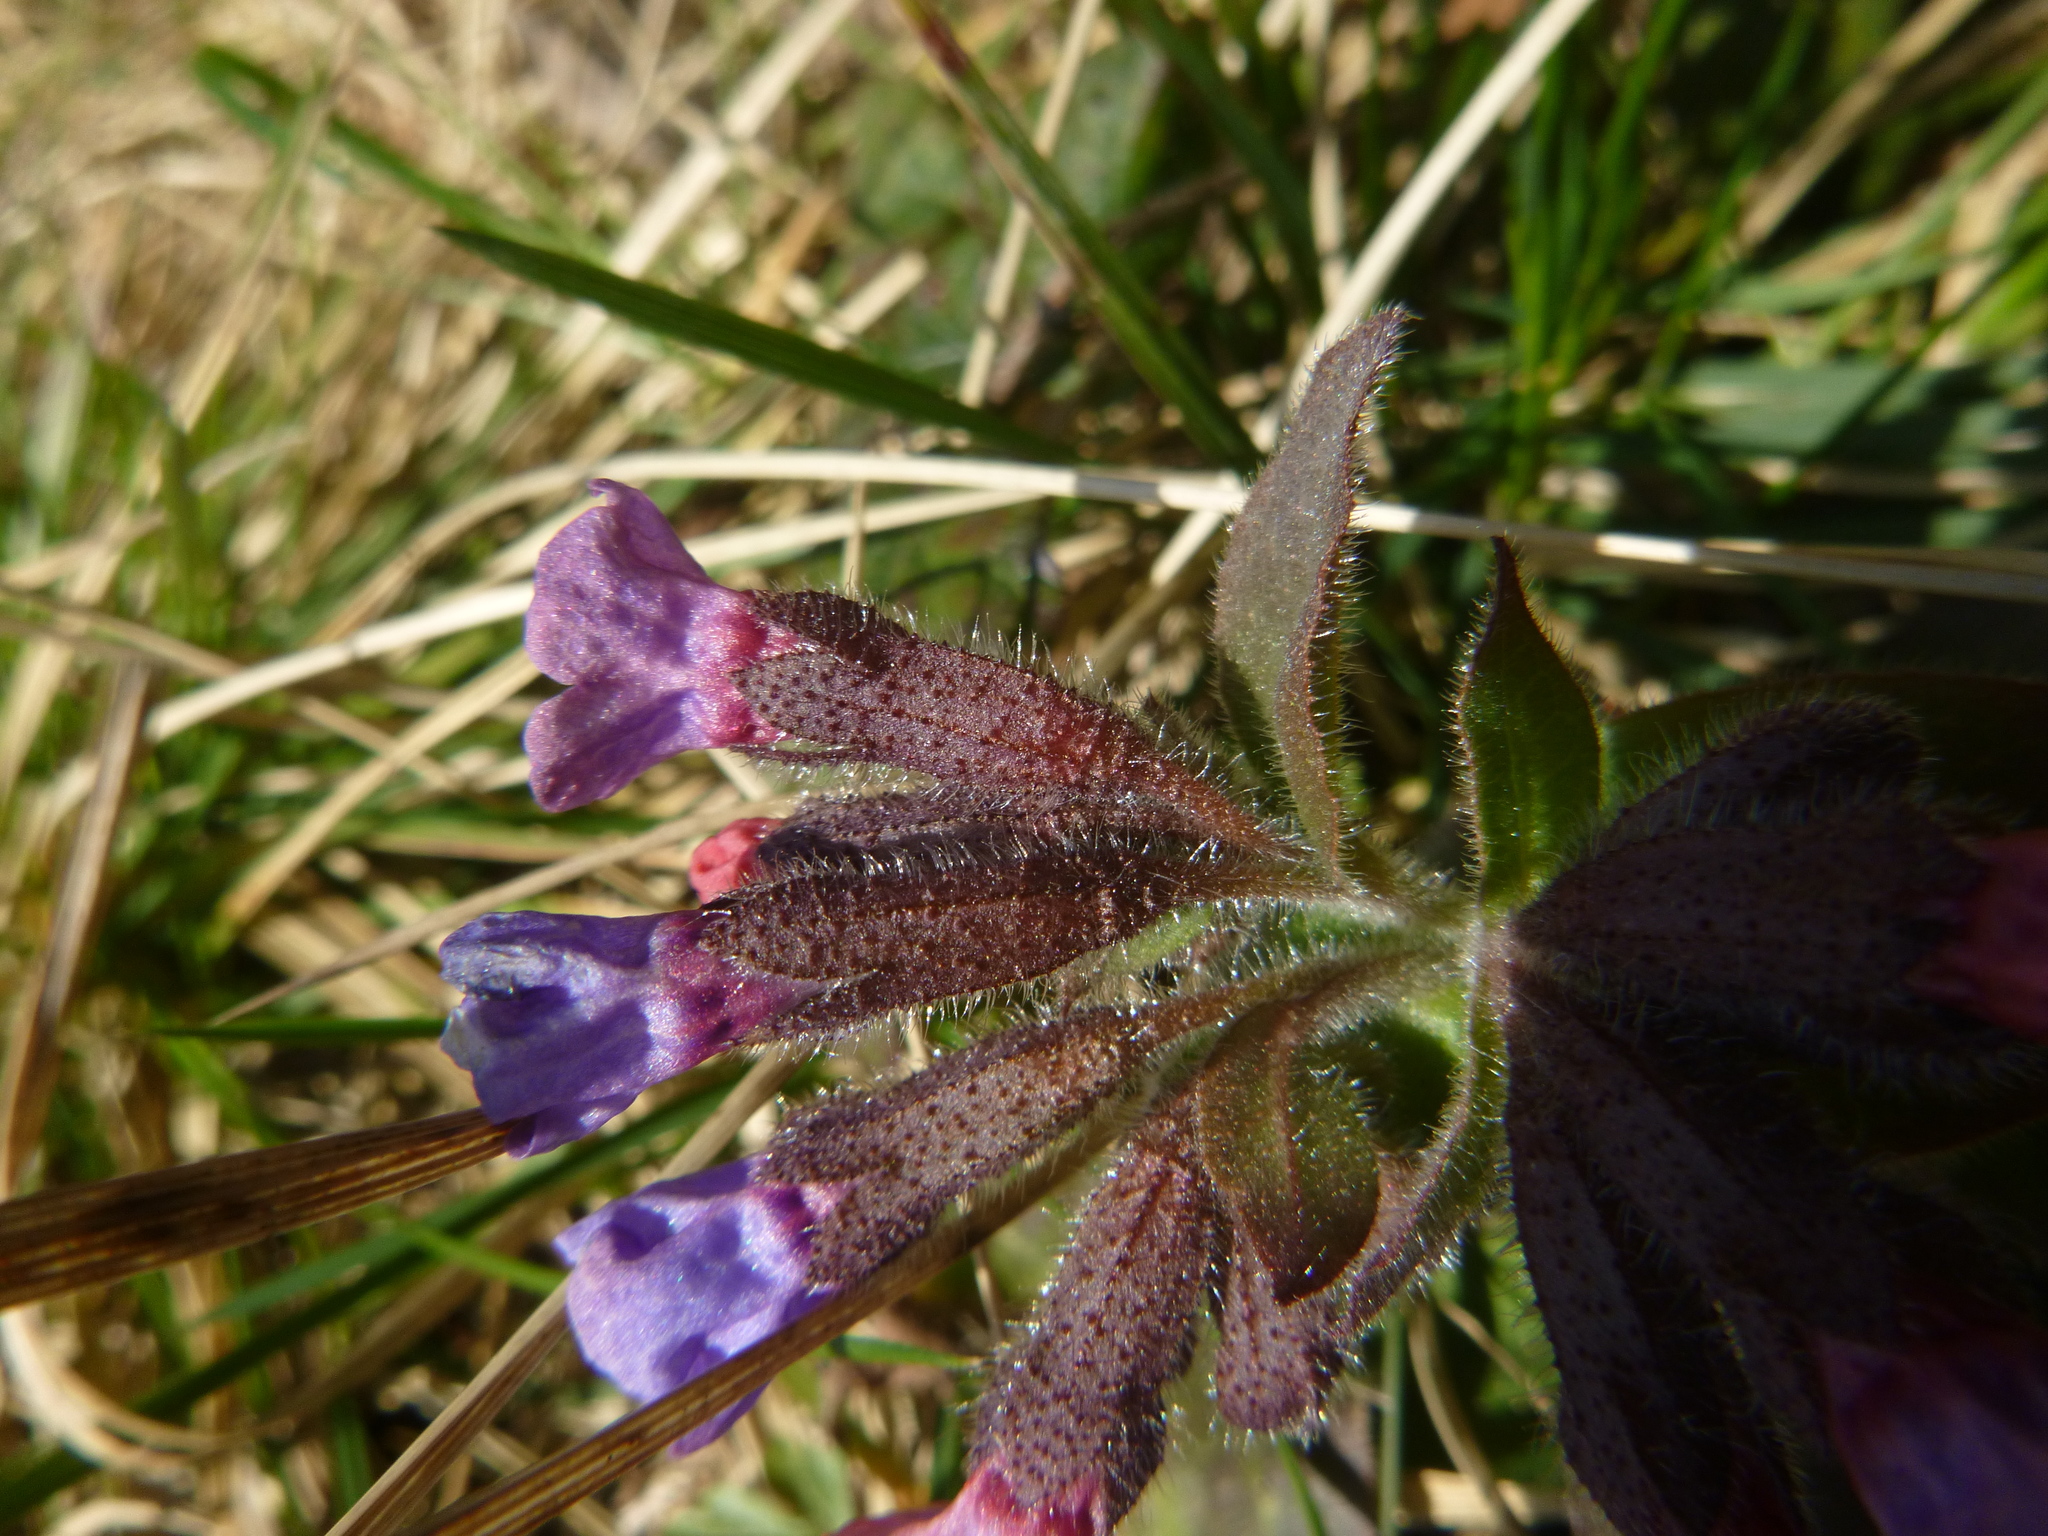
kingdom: Plantae
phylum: Tracheophyta
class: Magnoliopsida
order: Boraginales
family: Boraginaceae
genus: Pulmonaria
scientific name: Pulmonaria officinalis
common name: Lungwort
